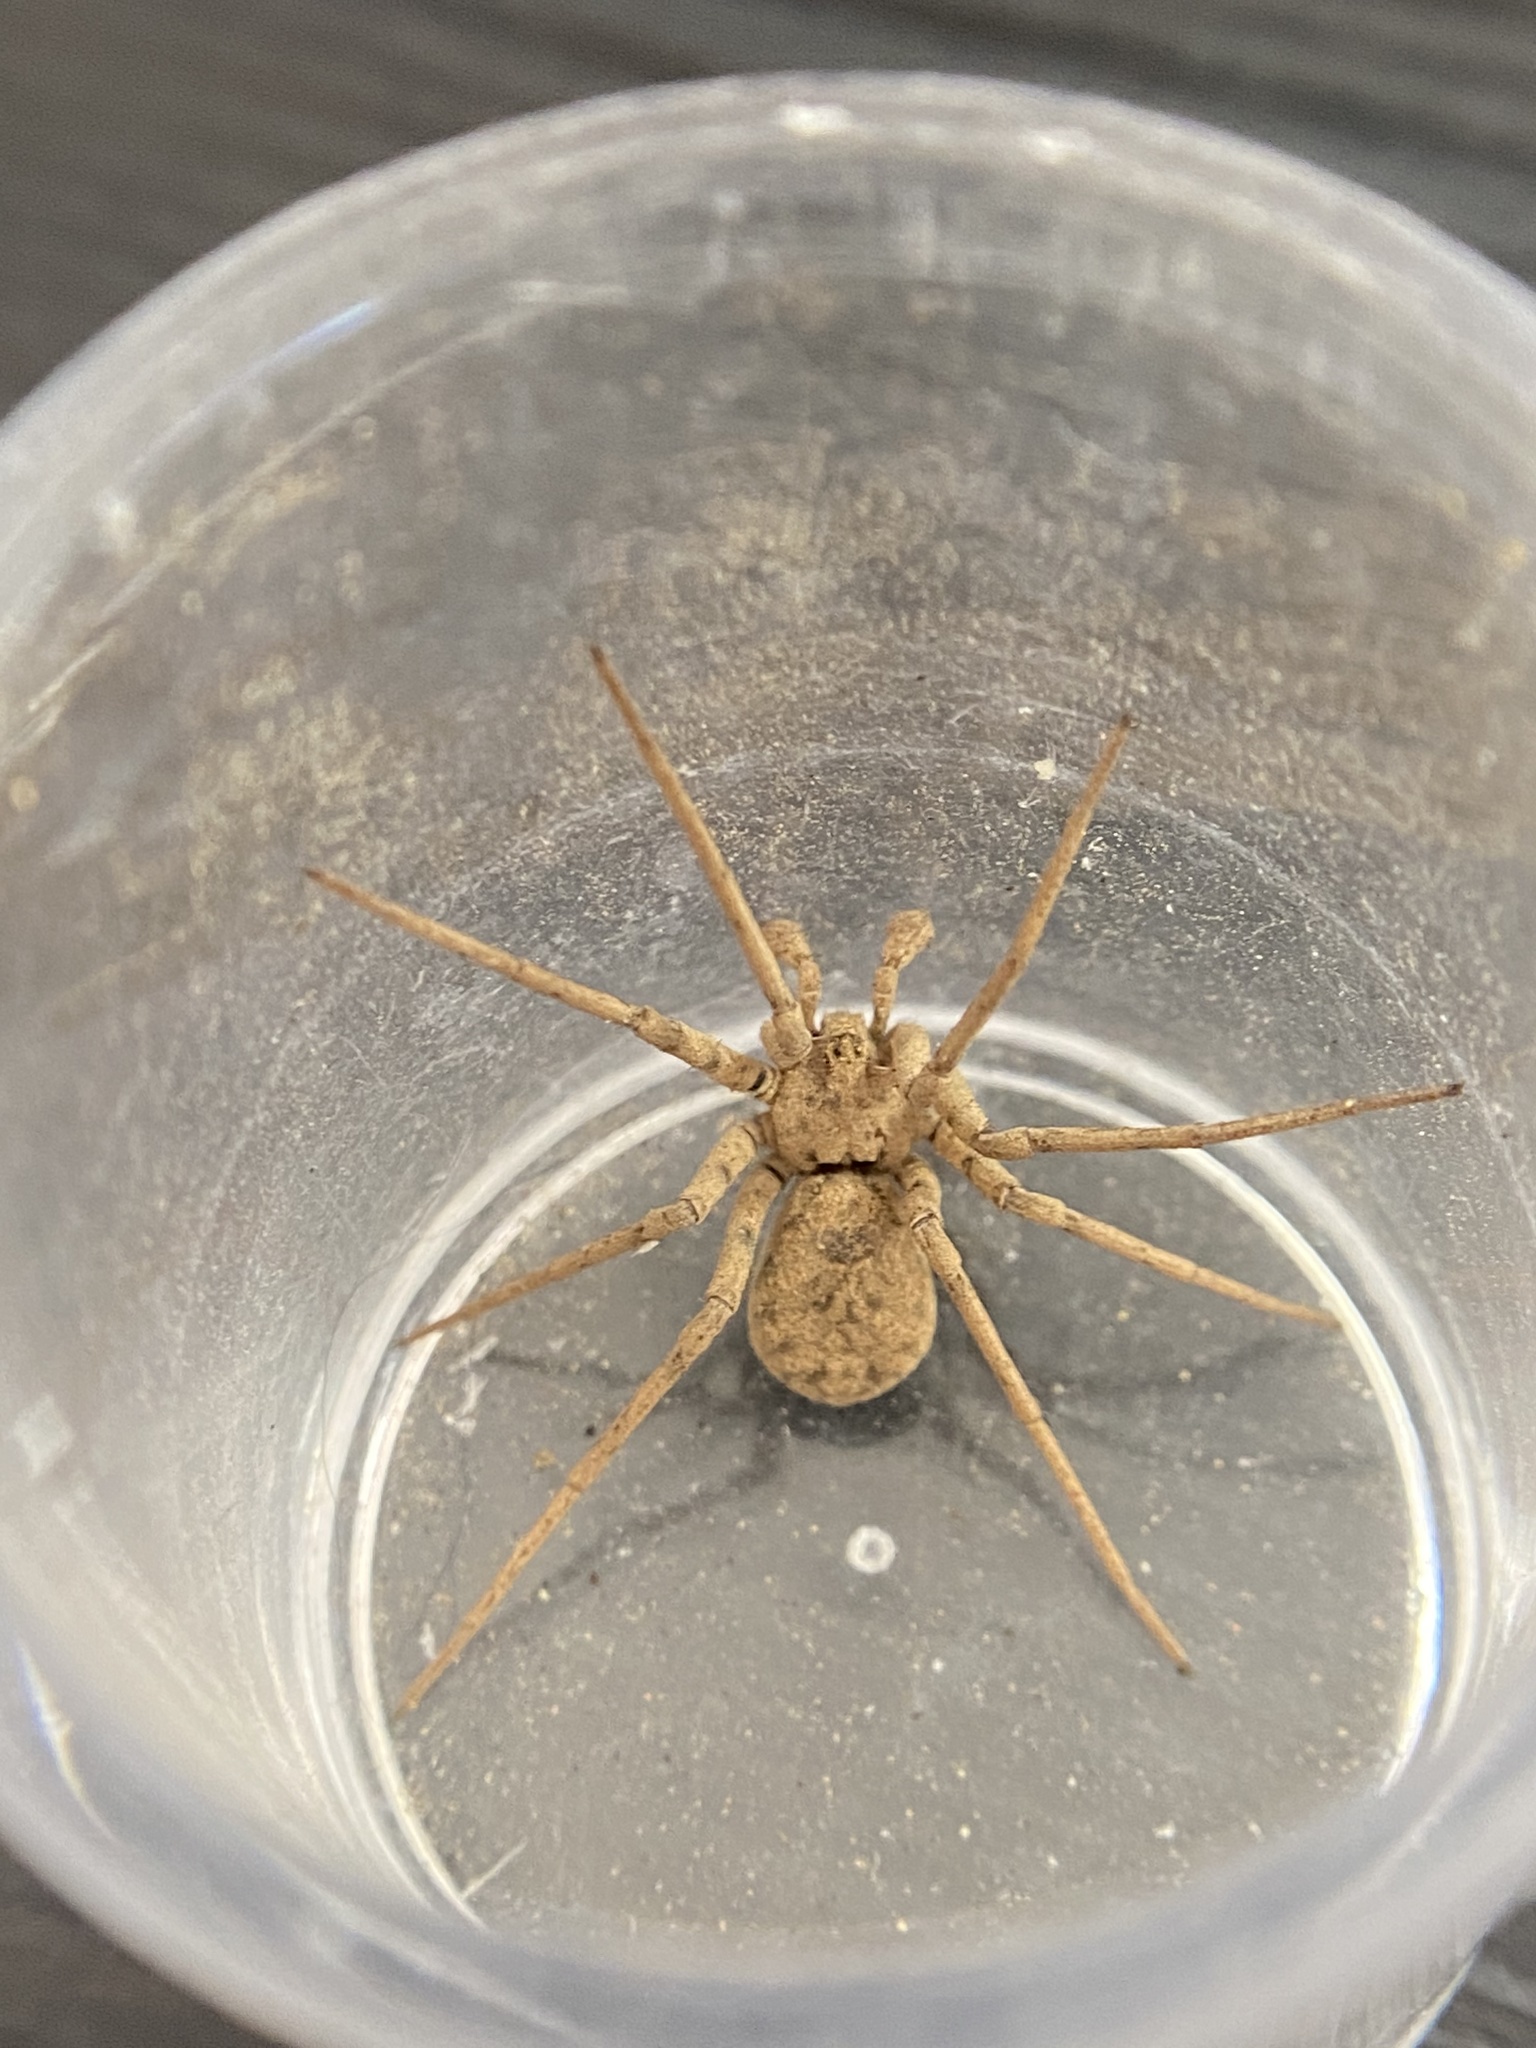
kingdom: Animalia
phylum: Arthropoda
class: Arachnida
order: Araneae
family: Homalonychidae
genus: Homalonychus
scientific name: Homalonychus selenopoides
